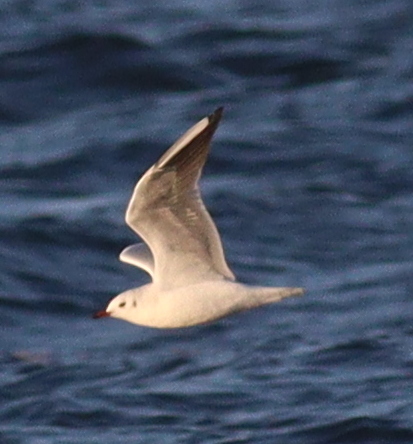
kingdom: Animalia
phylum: Chordata
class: Aves
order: Charadriiformes
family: Laridae
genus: Chroicocephalus
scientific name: Chroicocephalus ridibundus
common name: Black-headed gull
